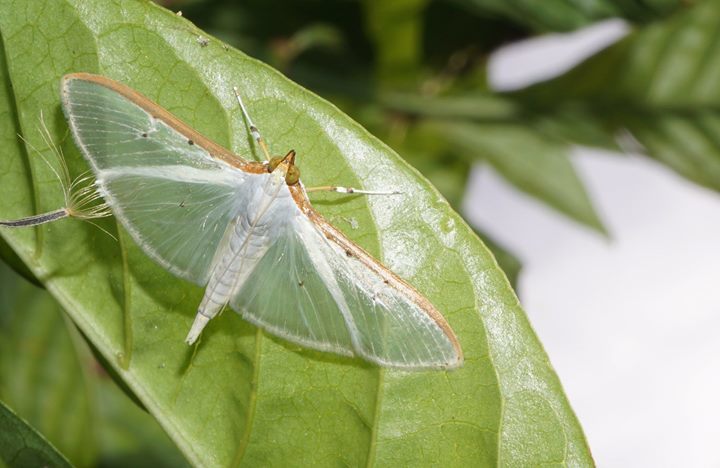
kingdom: Animalia
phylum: Arthropoda
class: Insecta
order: Lepidoptera
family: Crambidae
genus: Palpita
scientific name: Palpita quadristigmalis
